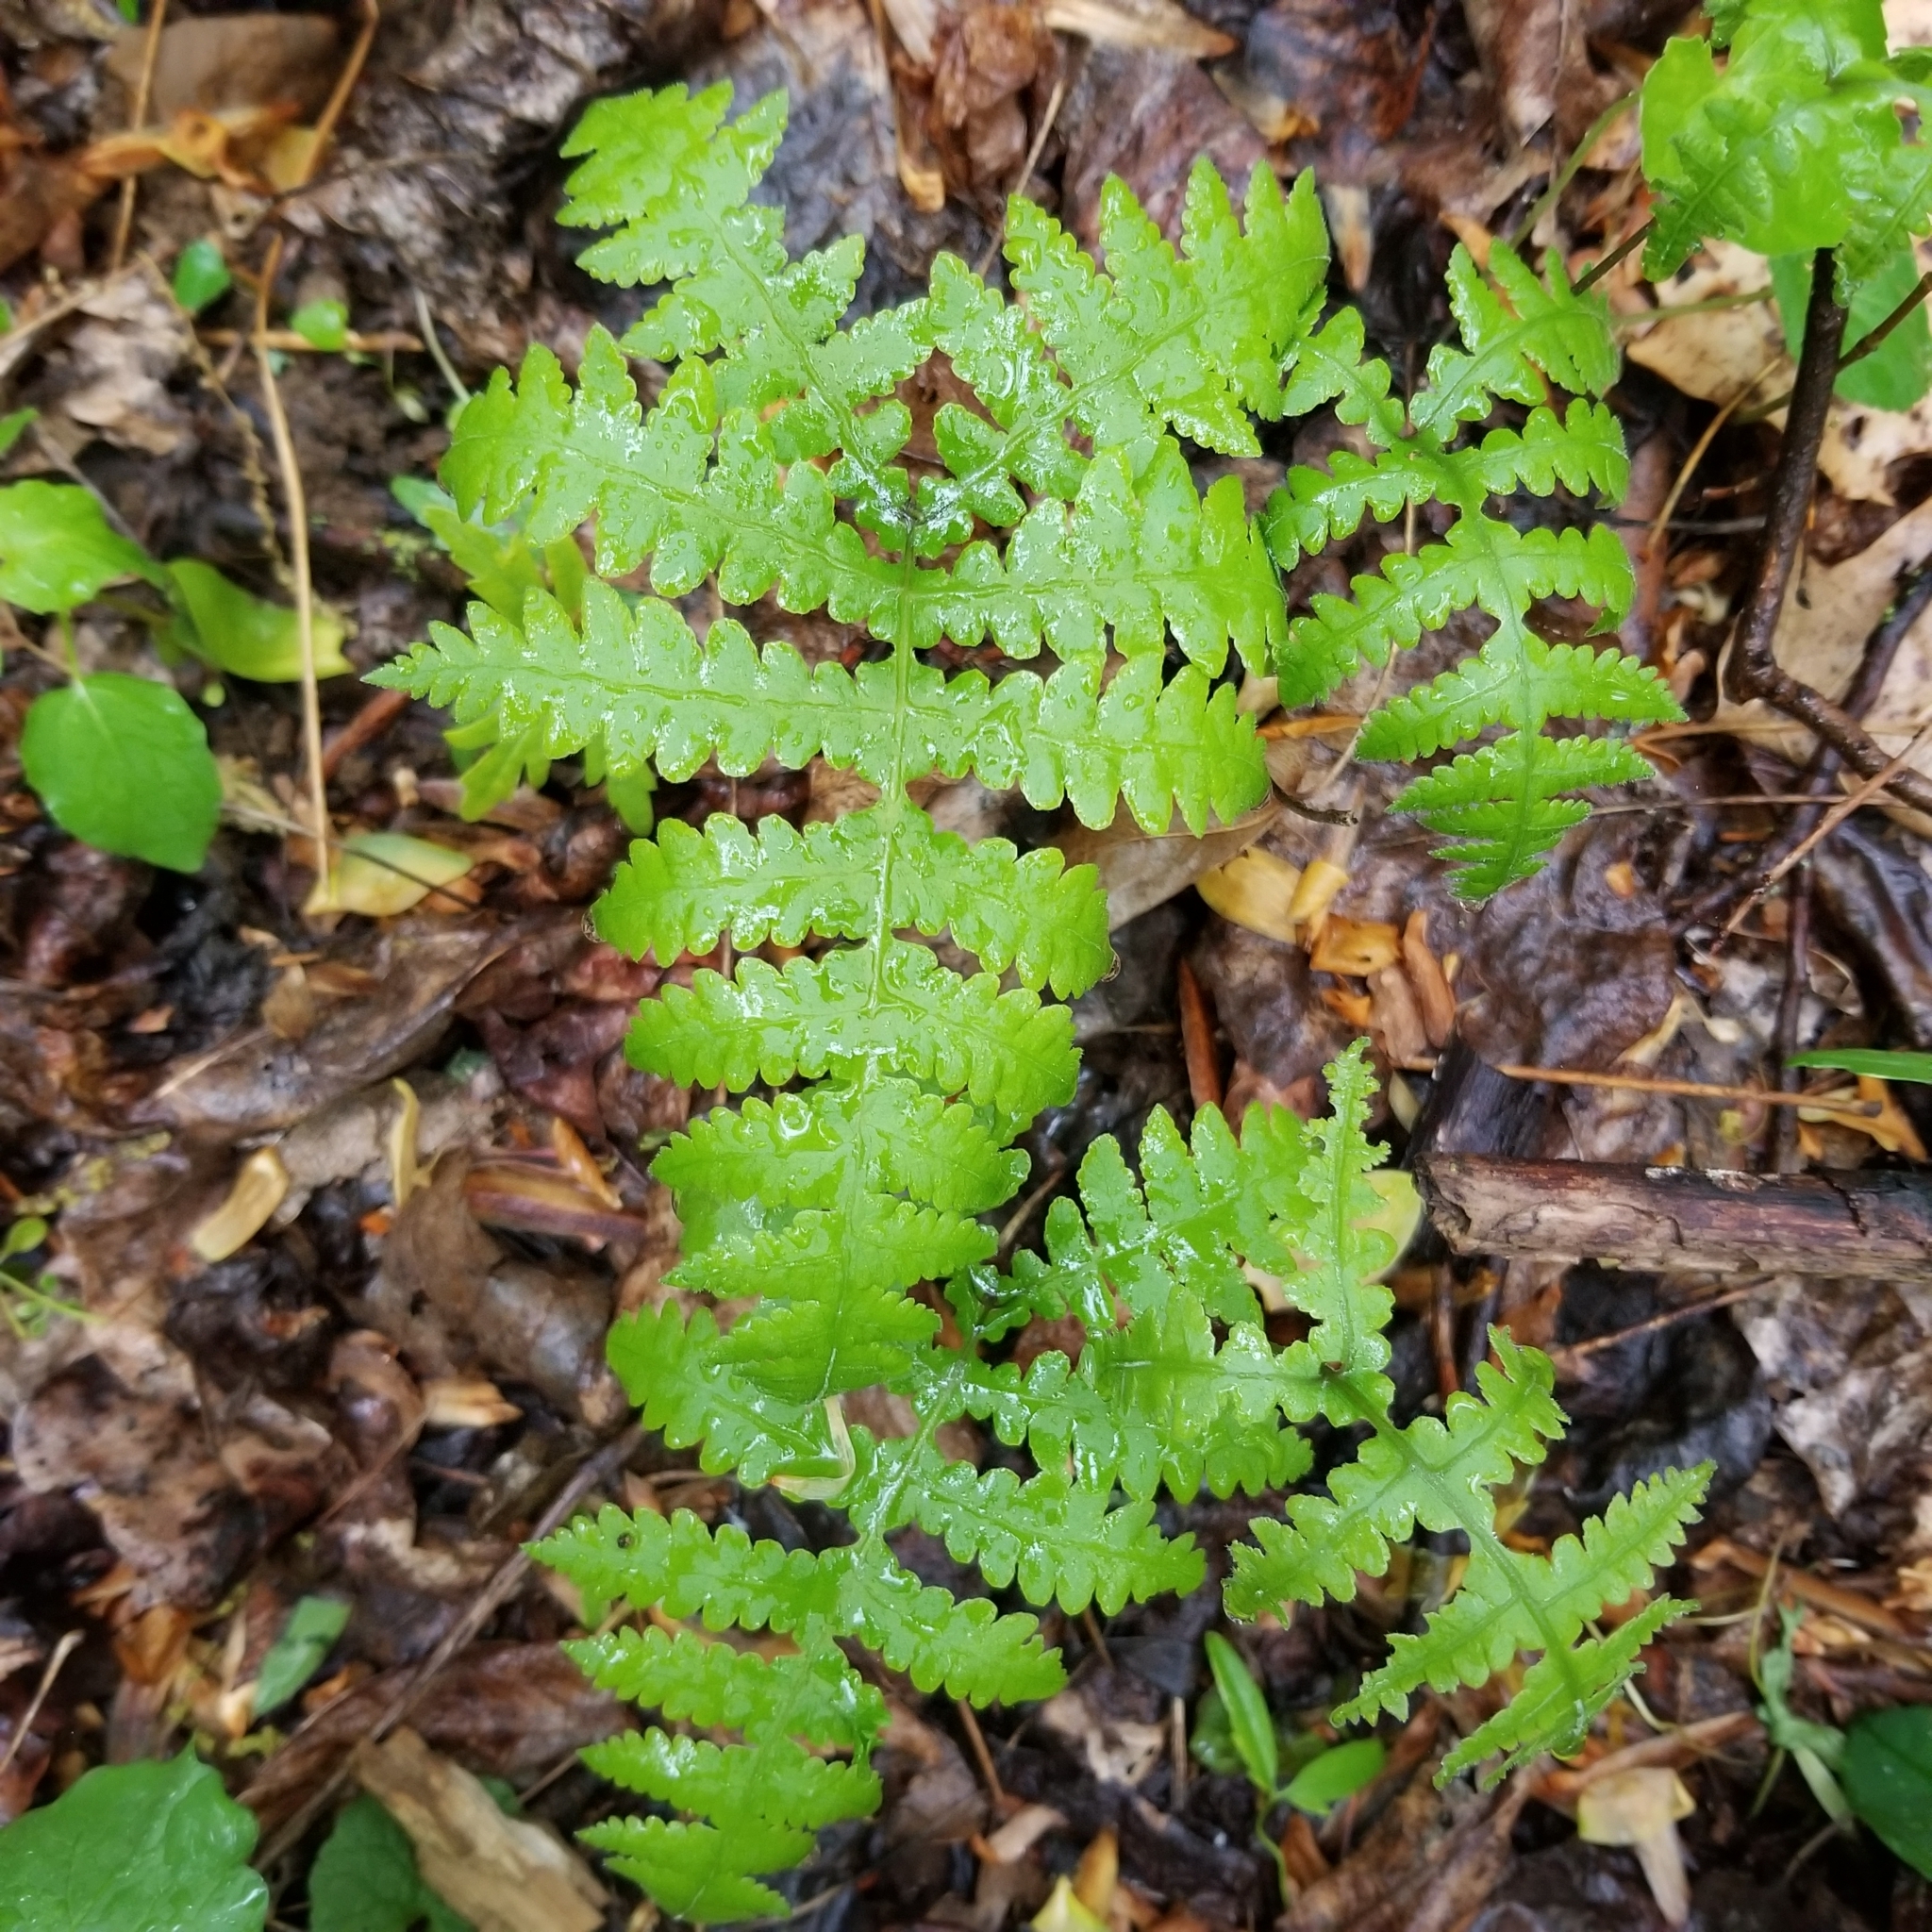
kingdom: Plantae
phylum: Tracheophyta
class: Polypodiopsida
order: Polypodiales
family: Thelypteridaceae
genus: Phegopteris
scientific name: Phegopteris hexagonoptera
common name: Broad beech fern
